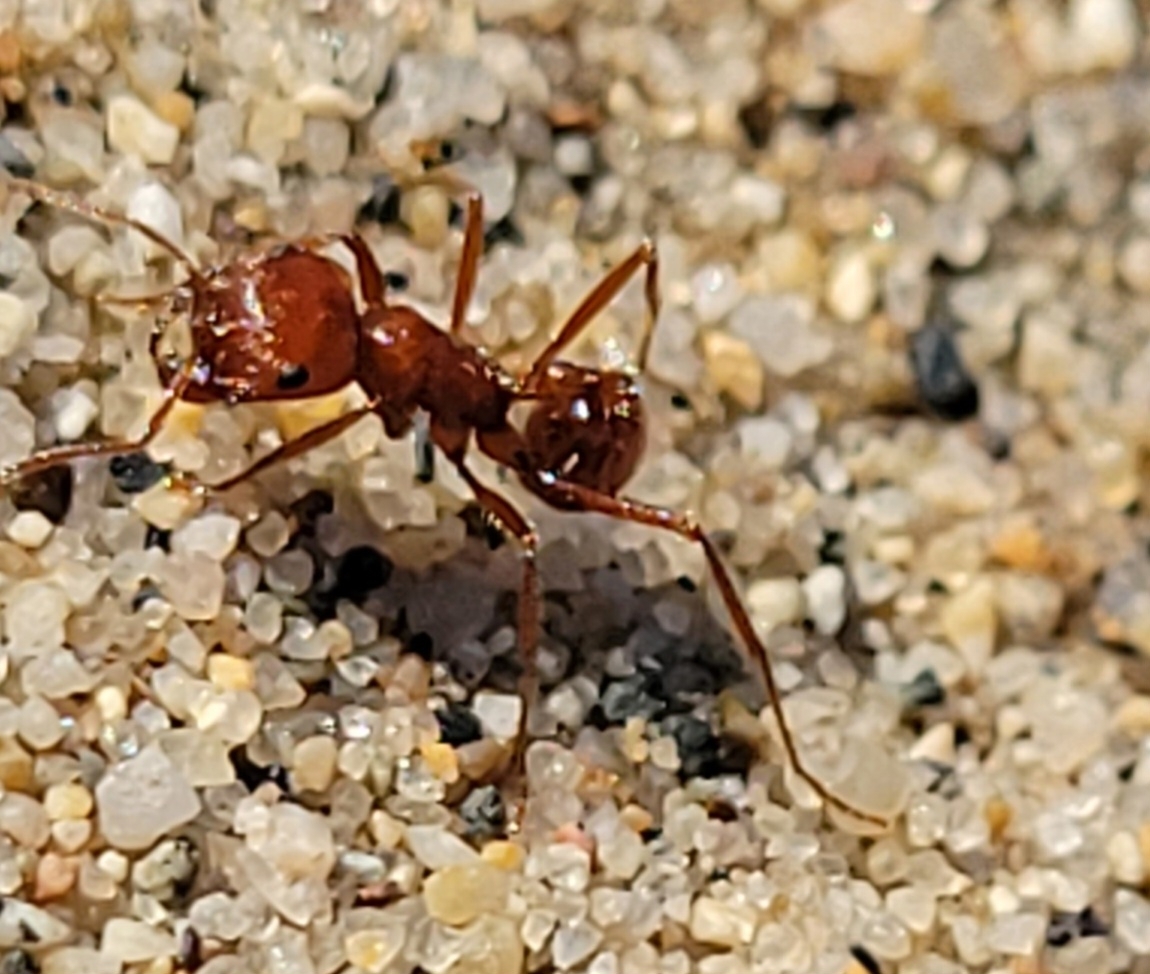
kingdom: Animalia
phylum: Arthropoda
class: Insecta
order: Hymenoptera
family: Formicidae
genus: Pogonomyrmex
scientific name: Pogonomyrmex californicus
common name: California harvester ant
